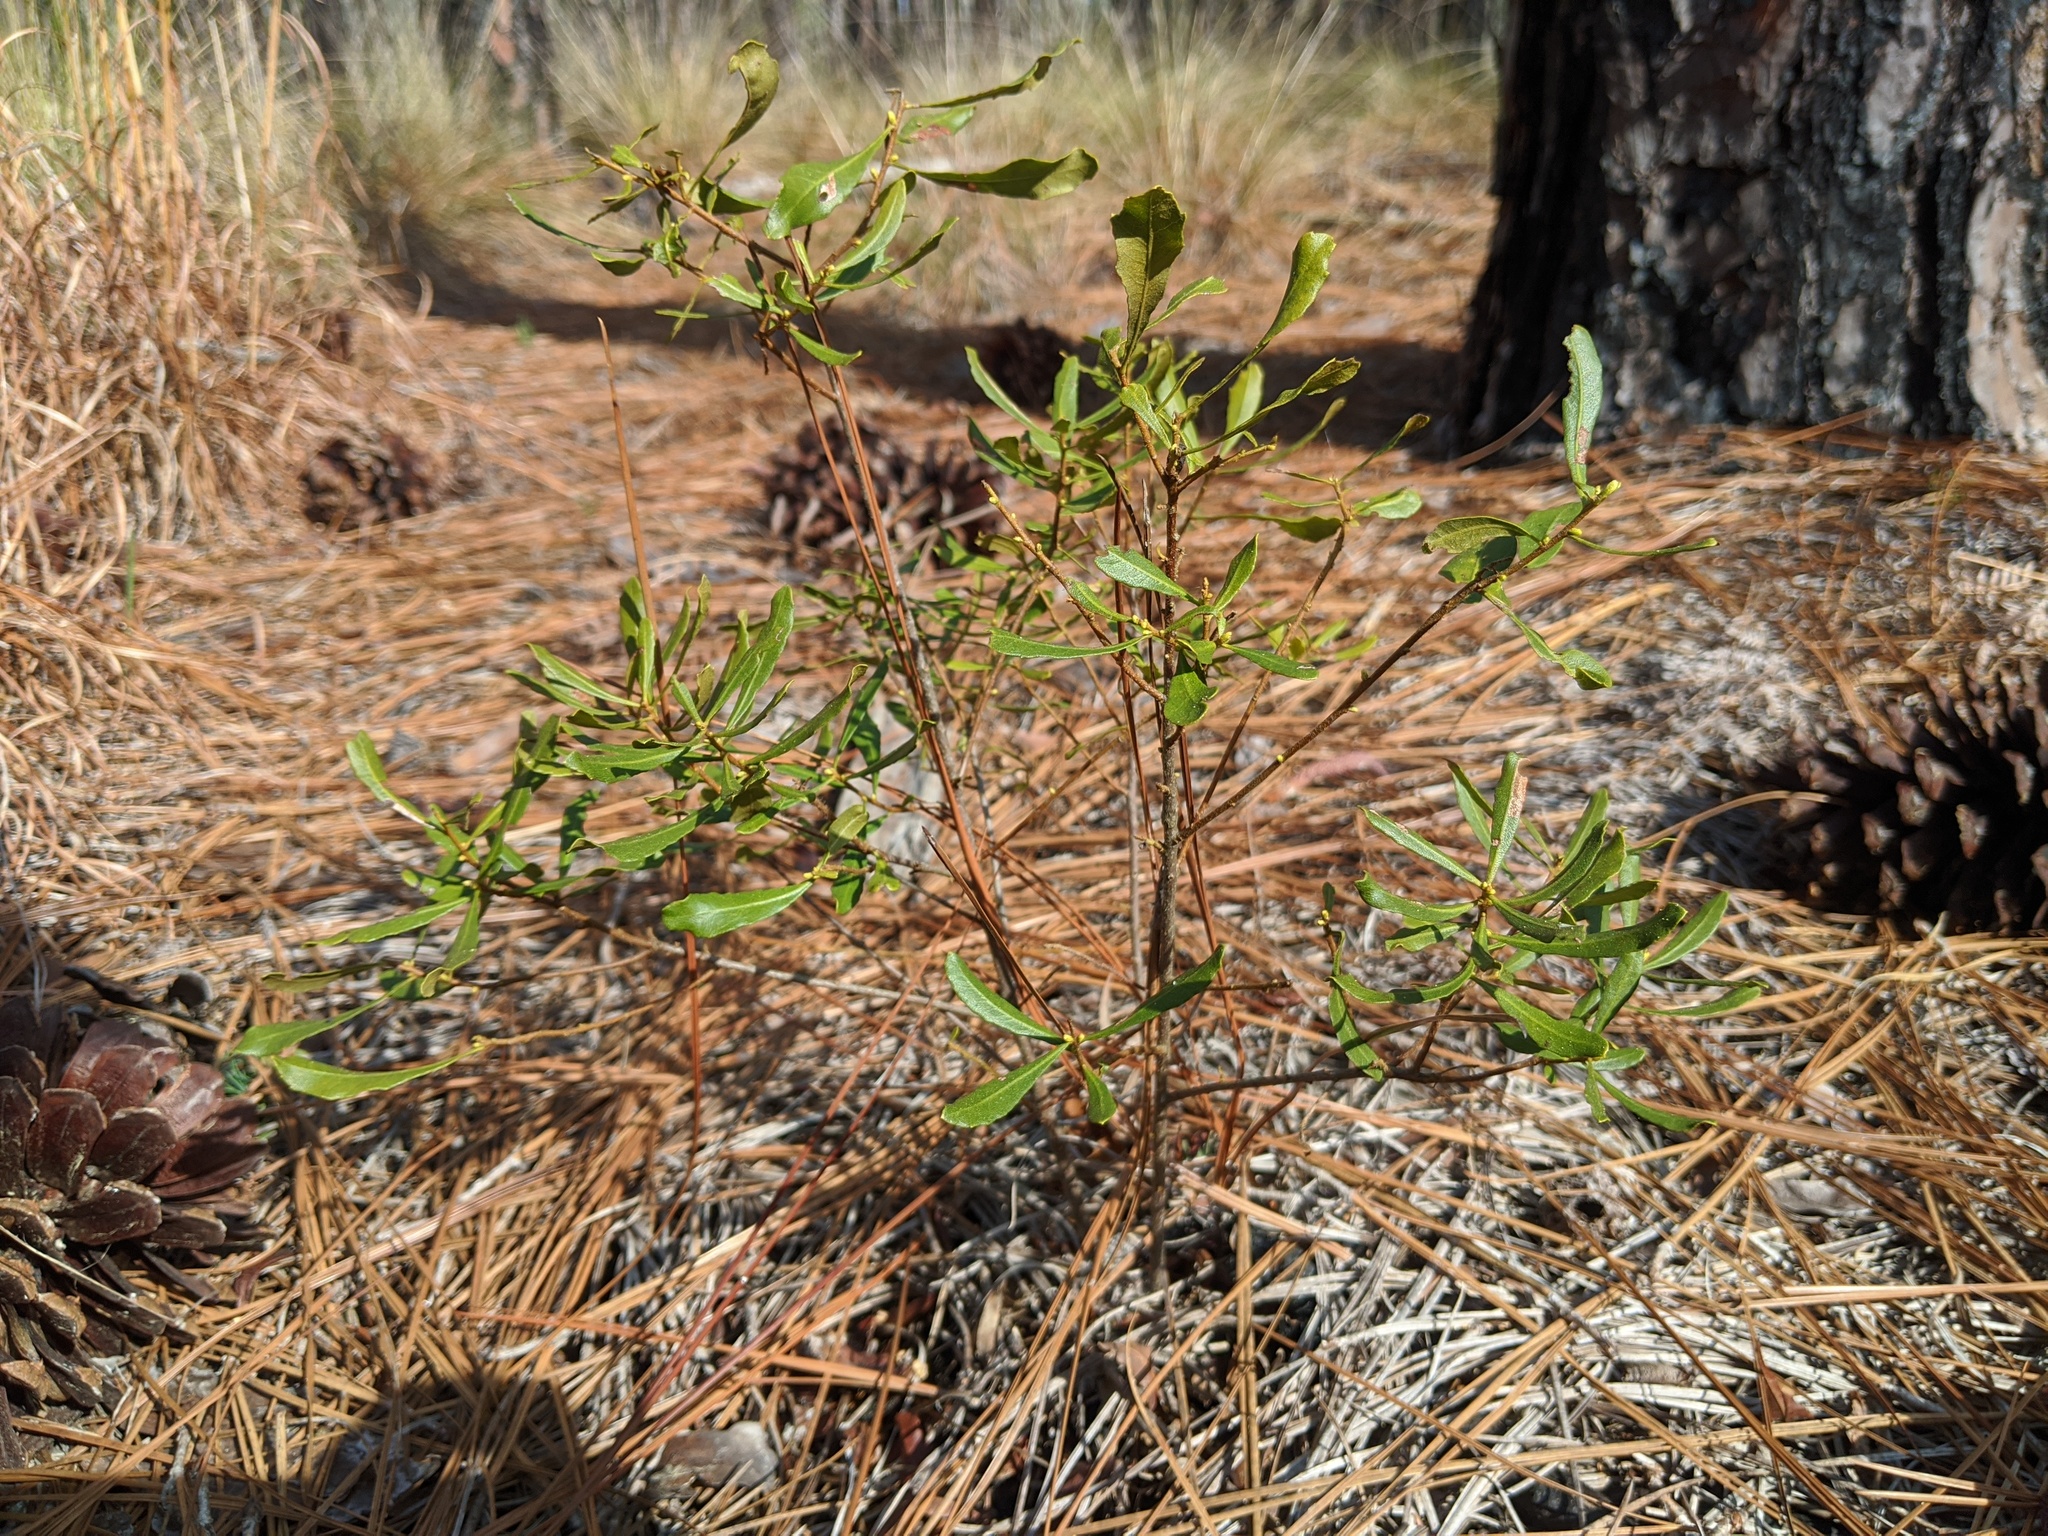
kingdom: Plantae
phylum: Tracheophyta
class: Magnoliopsida
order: Fagales
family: Myricaceae
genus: Morella
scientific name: Morella cerifera
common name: Wax myrtle
